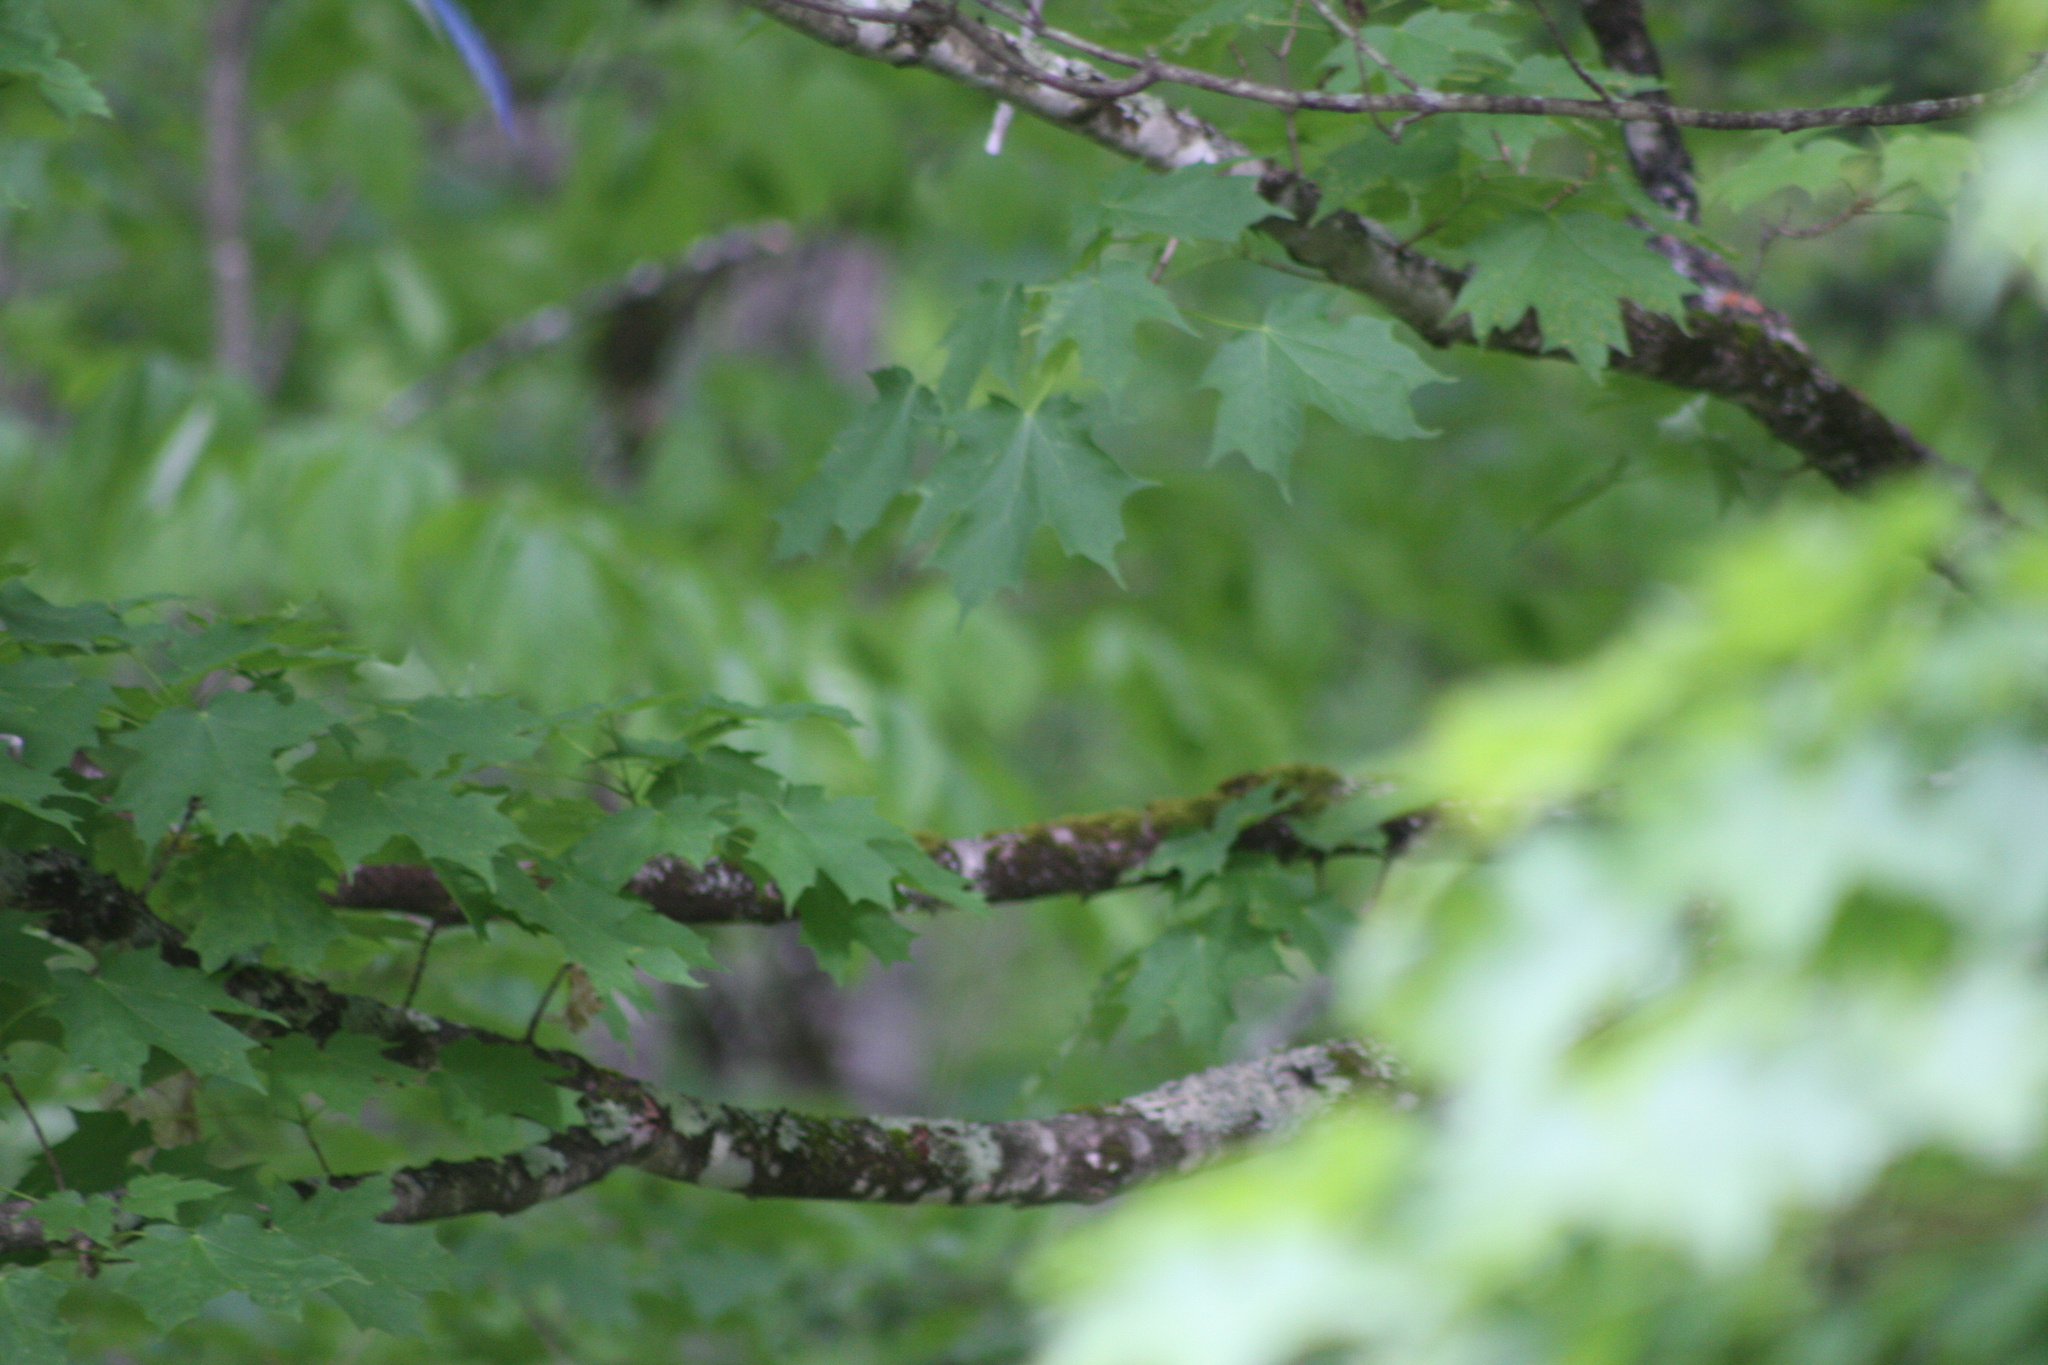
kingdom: Plantae
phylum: Tracheophyta
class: Magnoliopsida
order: Sapindales
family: Sapindaceae
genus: Acer
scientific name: Acer saccharum
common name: Sugar maple
